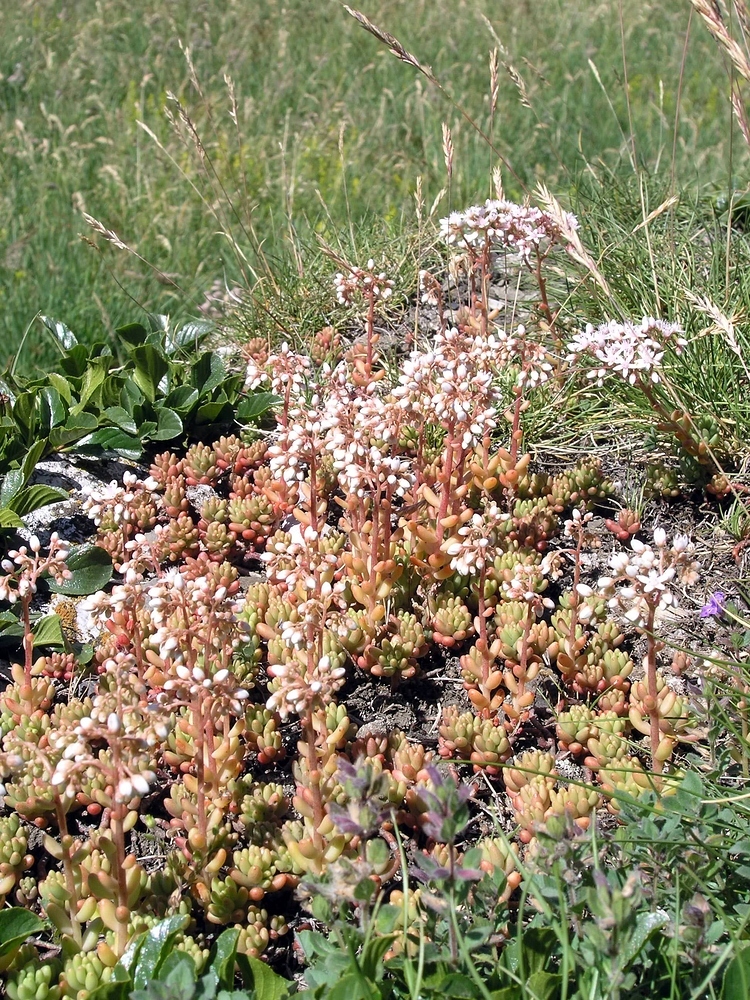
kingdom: Plantae
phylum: Tracheophyta
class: Magnoliopsida
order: Saxifragales
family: Crassulaceae
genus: Sedum
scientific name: Sedum album
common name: White stonecrop
